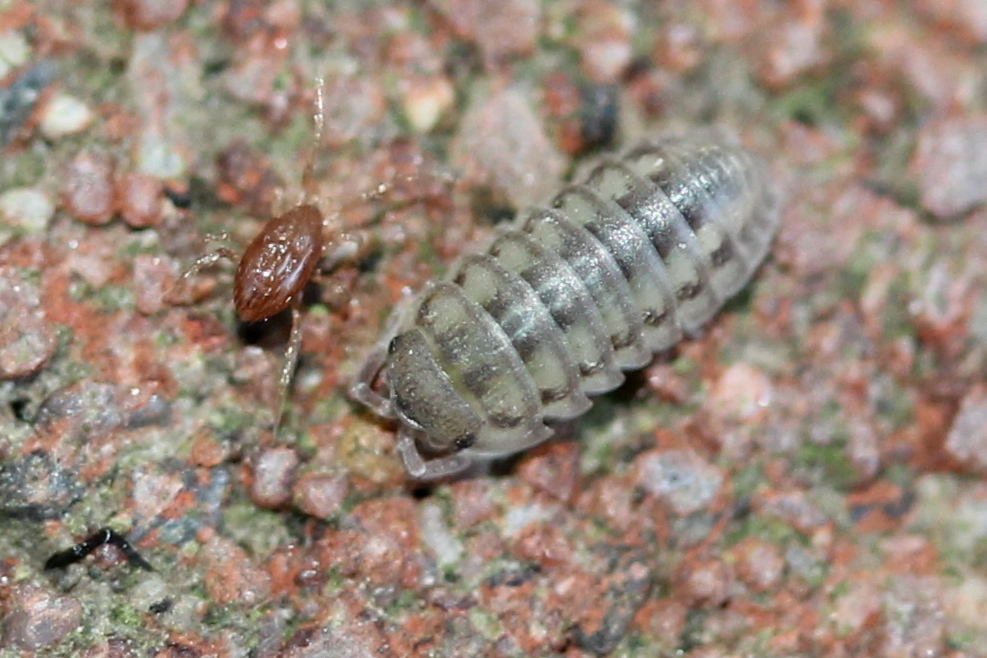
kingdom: Animalia
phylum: Arthropoda
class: Malacostraca
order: Isopoda
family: Armadillidiidae
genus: Armadillidium
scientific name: Armadillidium nasatum
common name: Isopod
